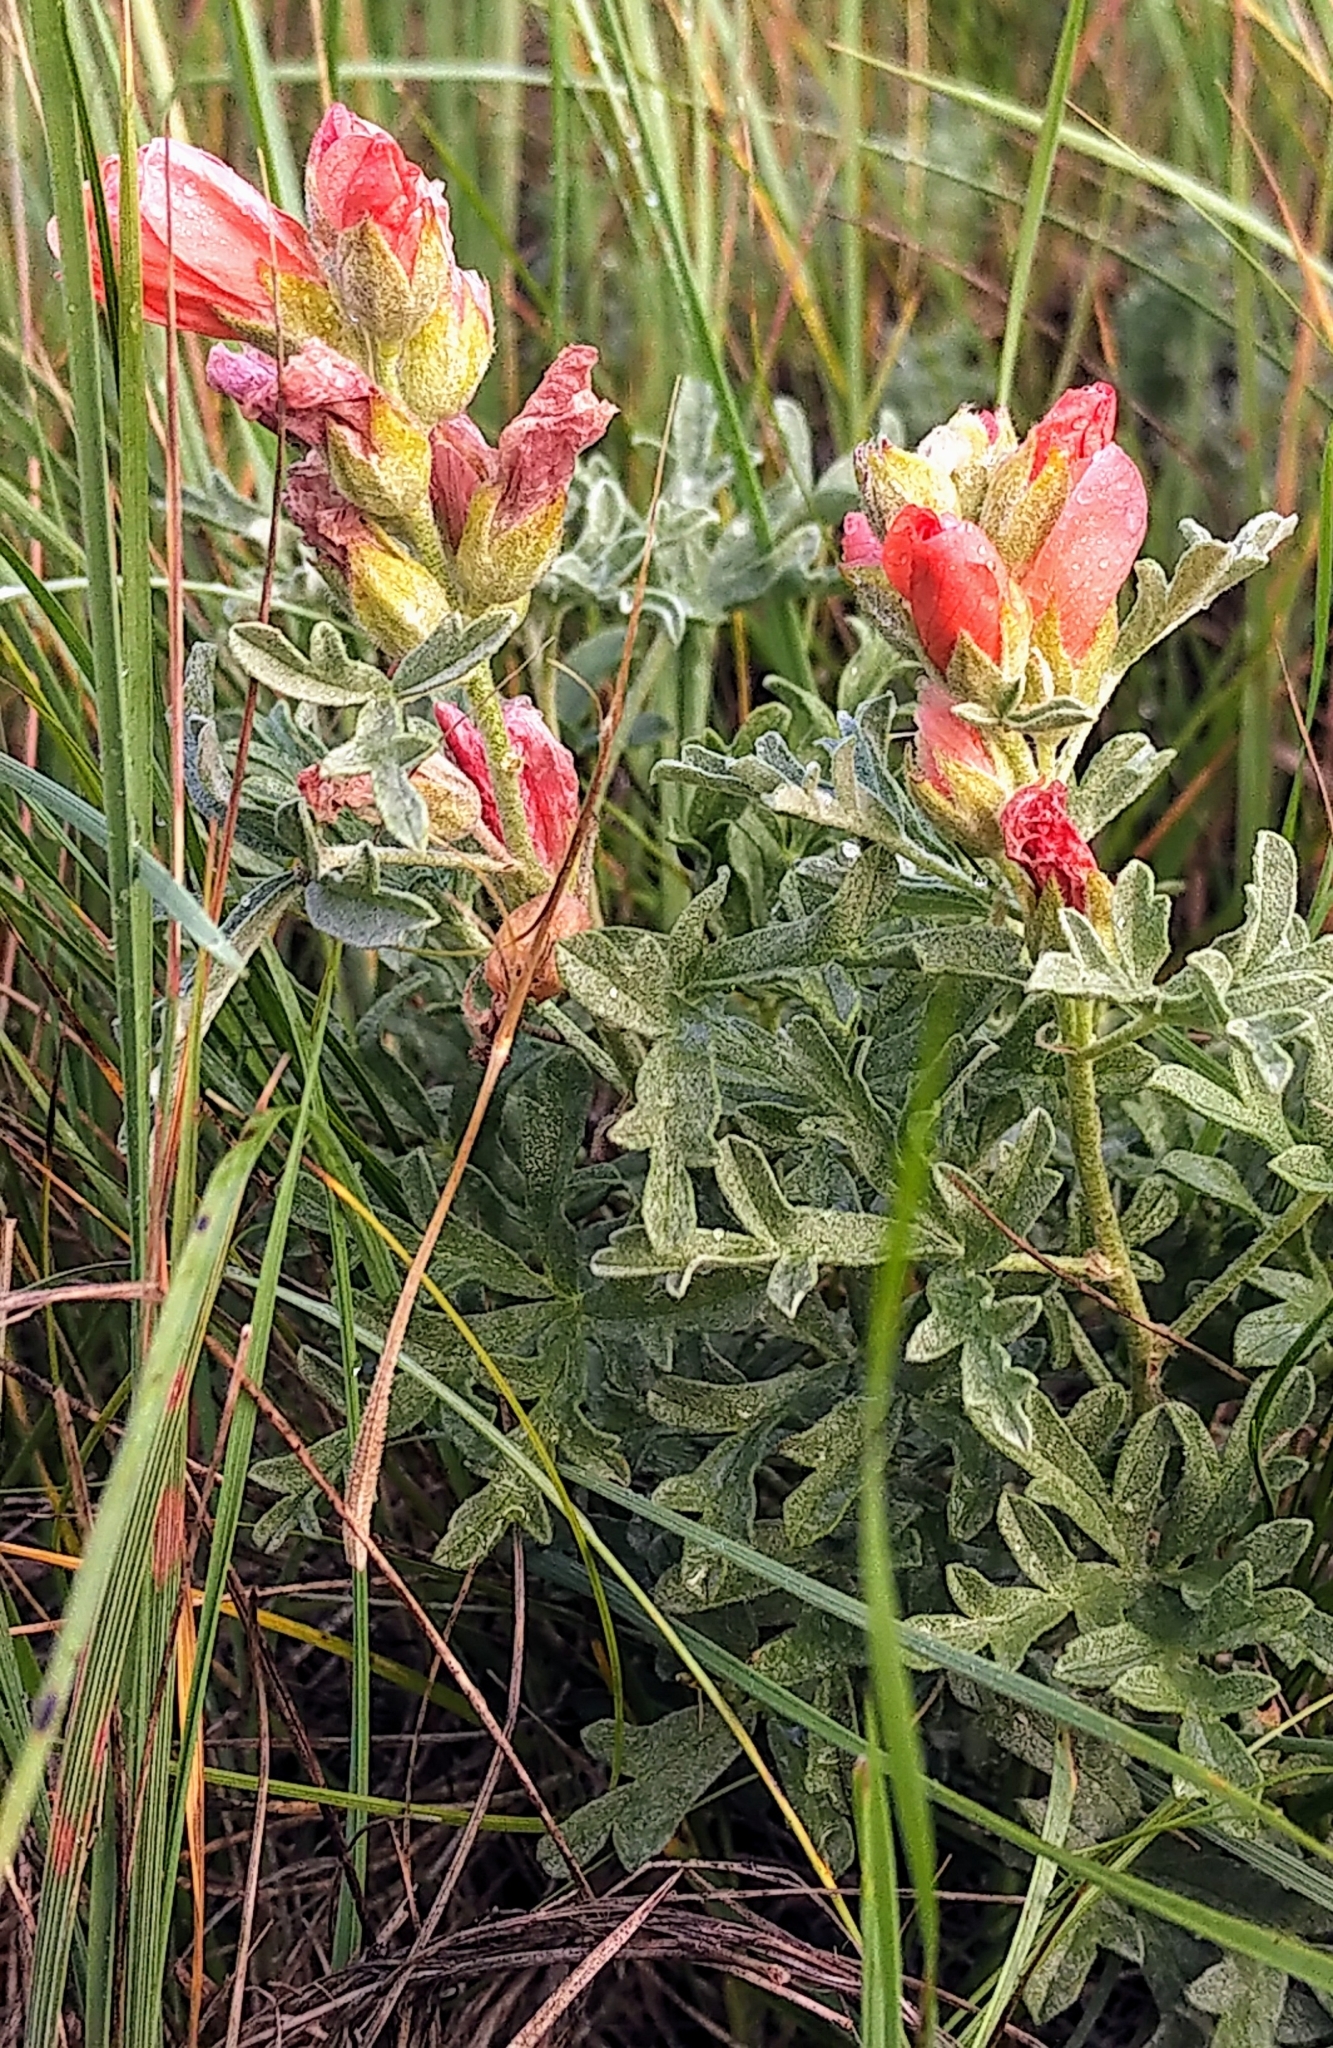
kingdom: Plantae
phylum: Tracheophyta
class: Magnoliopsida
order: Malvales
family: Malvaceae
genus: Sphaeralcea
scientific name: Sphaeralcea coccinea
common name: Moss-rose
